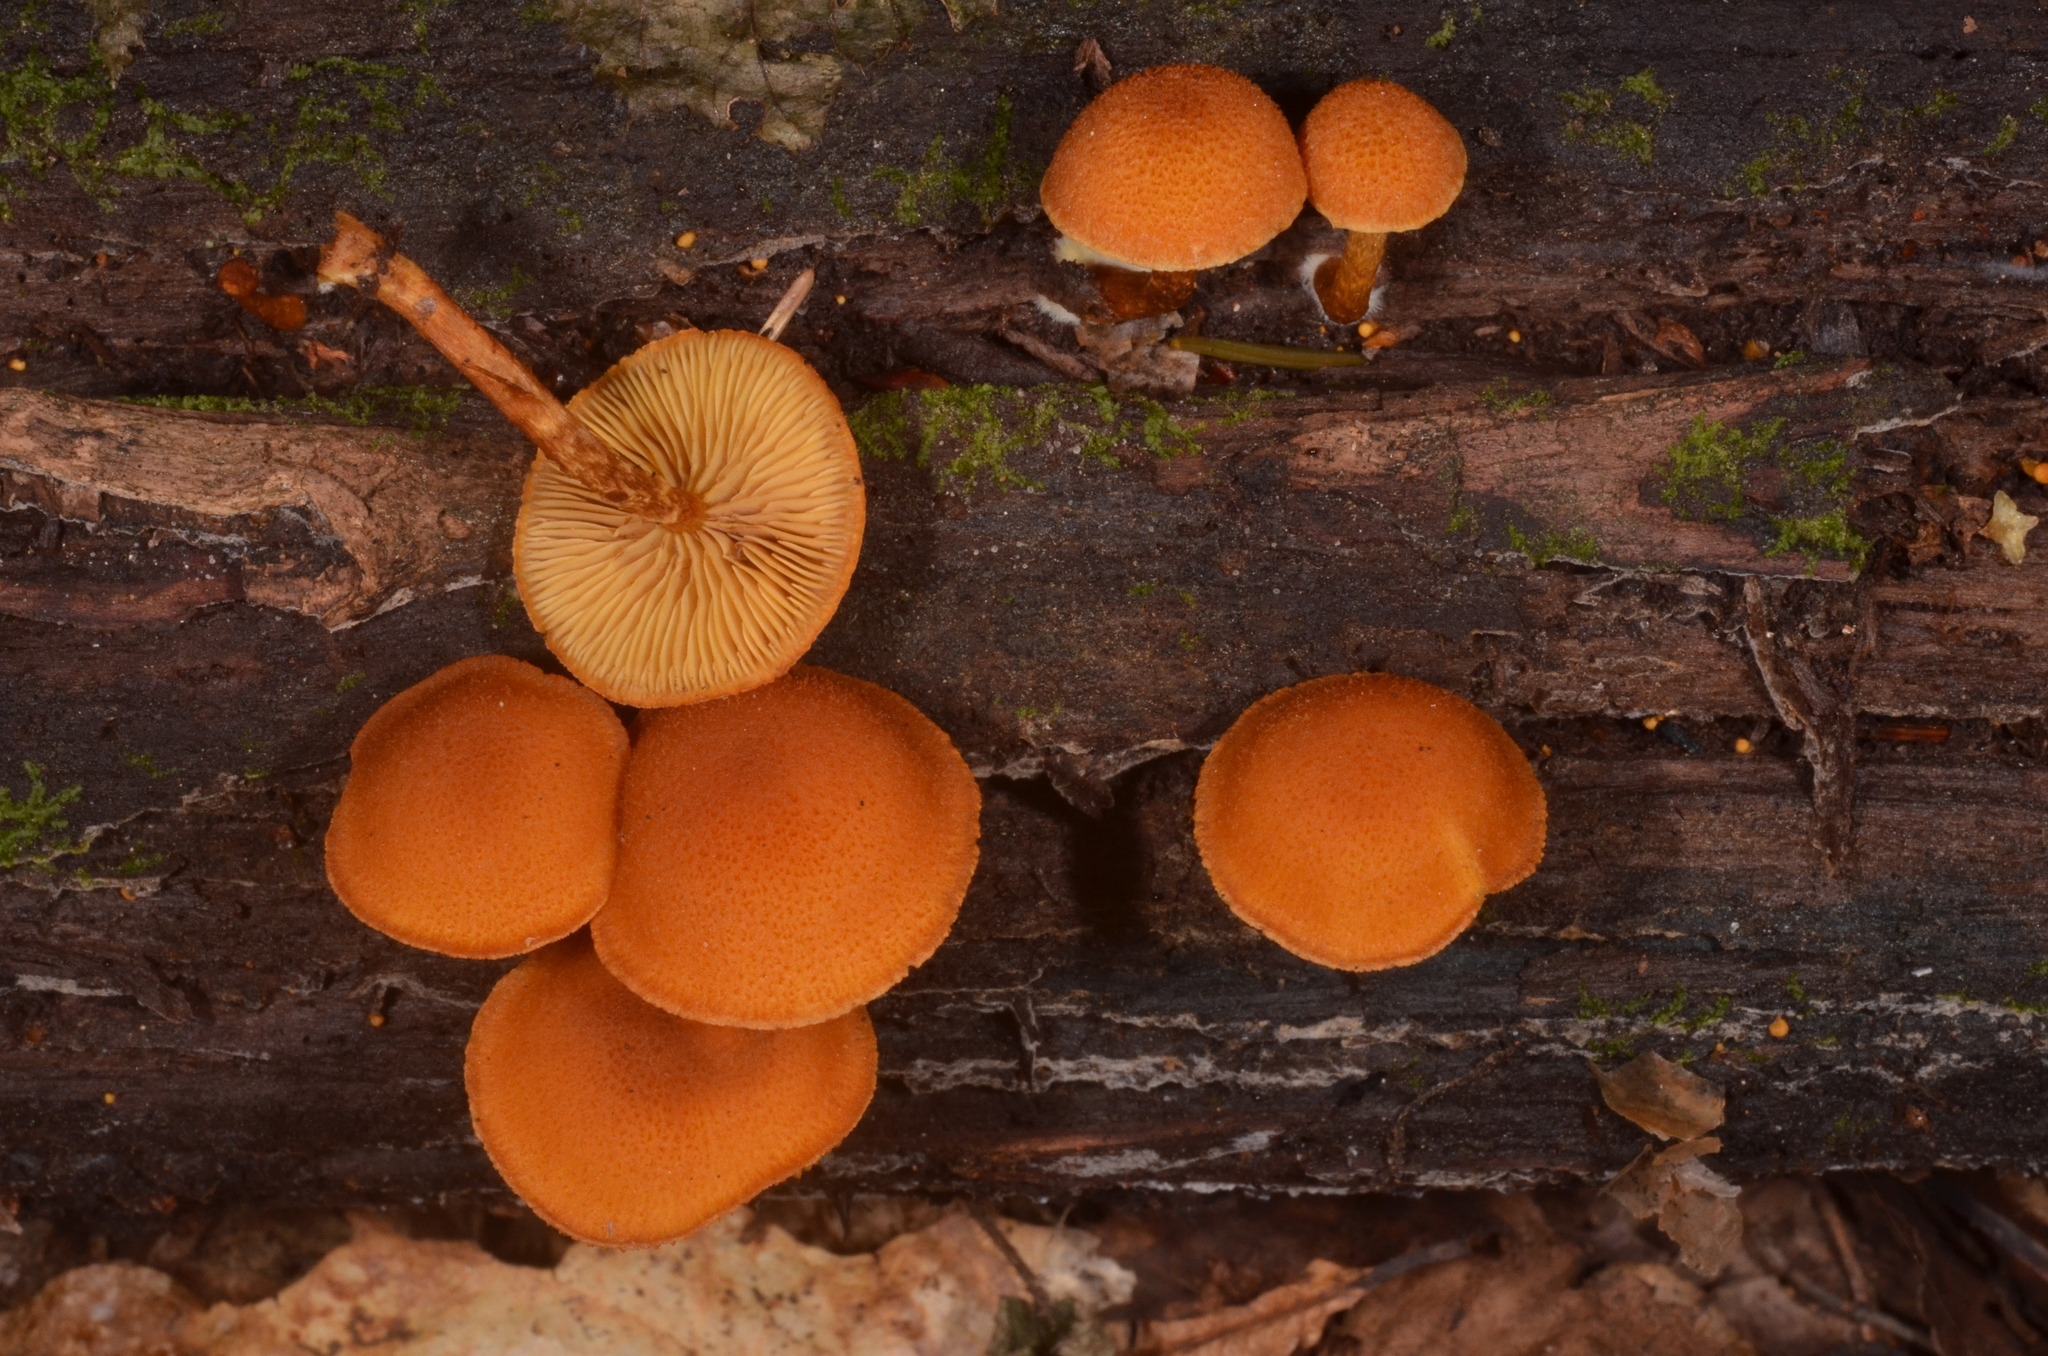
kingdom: Fungi
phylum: Basidiomycota
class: Agaricomycetes
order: Agaricales
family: Tubariaceae
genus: Flammulaster
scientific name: Flammulaster limulatus
